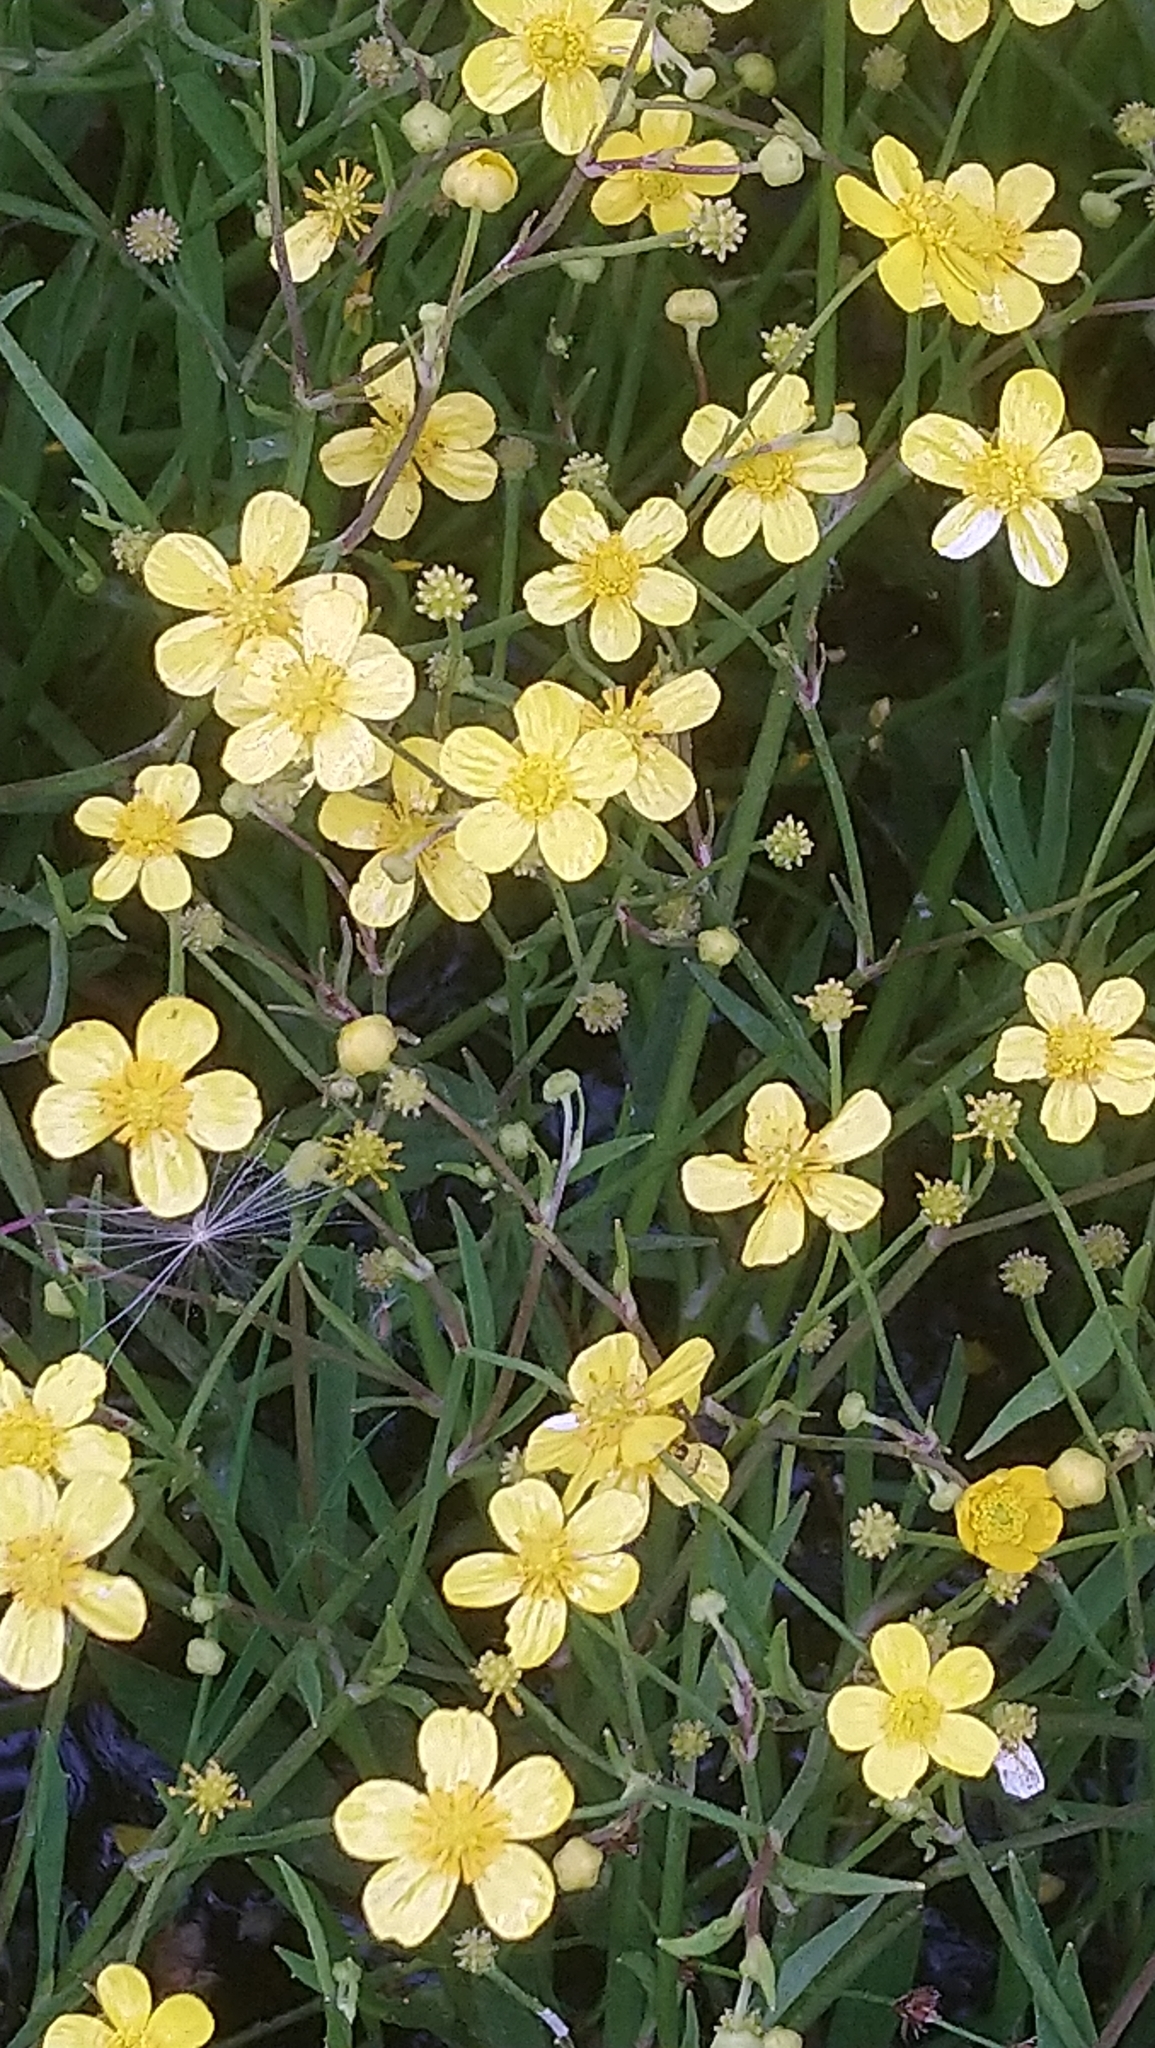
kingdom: Plantae
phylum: Tracheophyta
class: Magnoliopsida
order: Ranunculales
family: Ranunculaceae
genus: Ranunculus
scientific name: Ranunculus flammula
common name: Lesser spearwort
